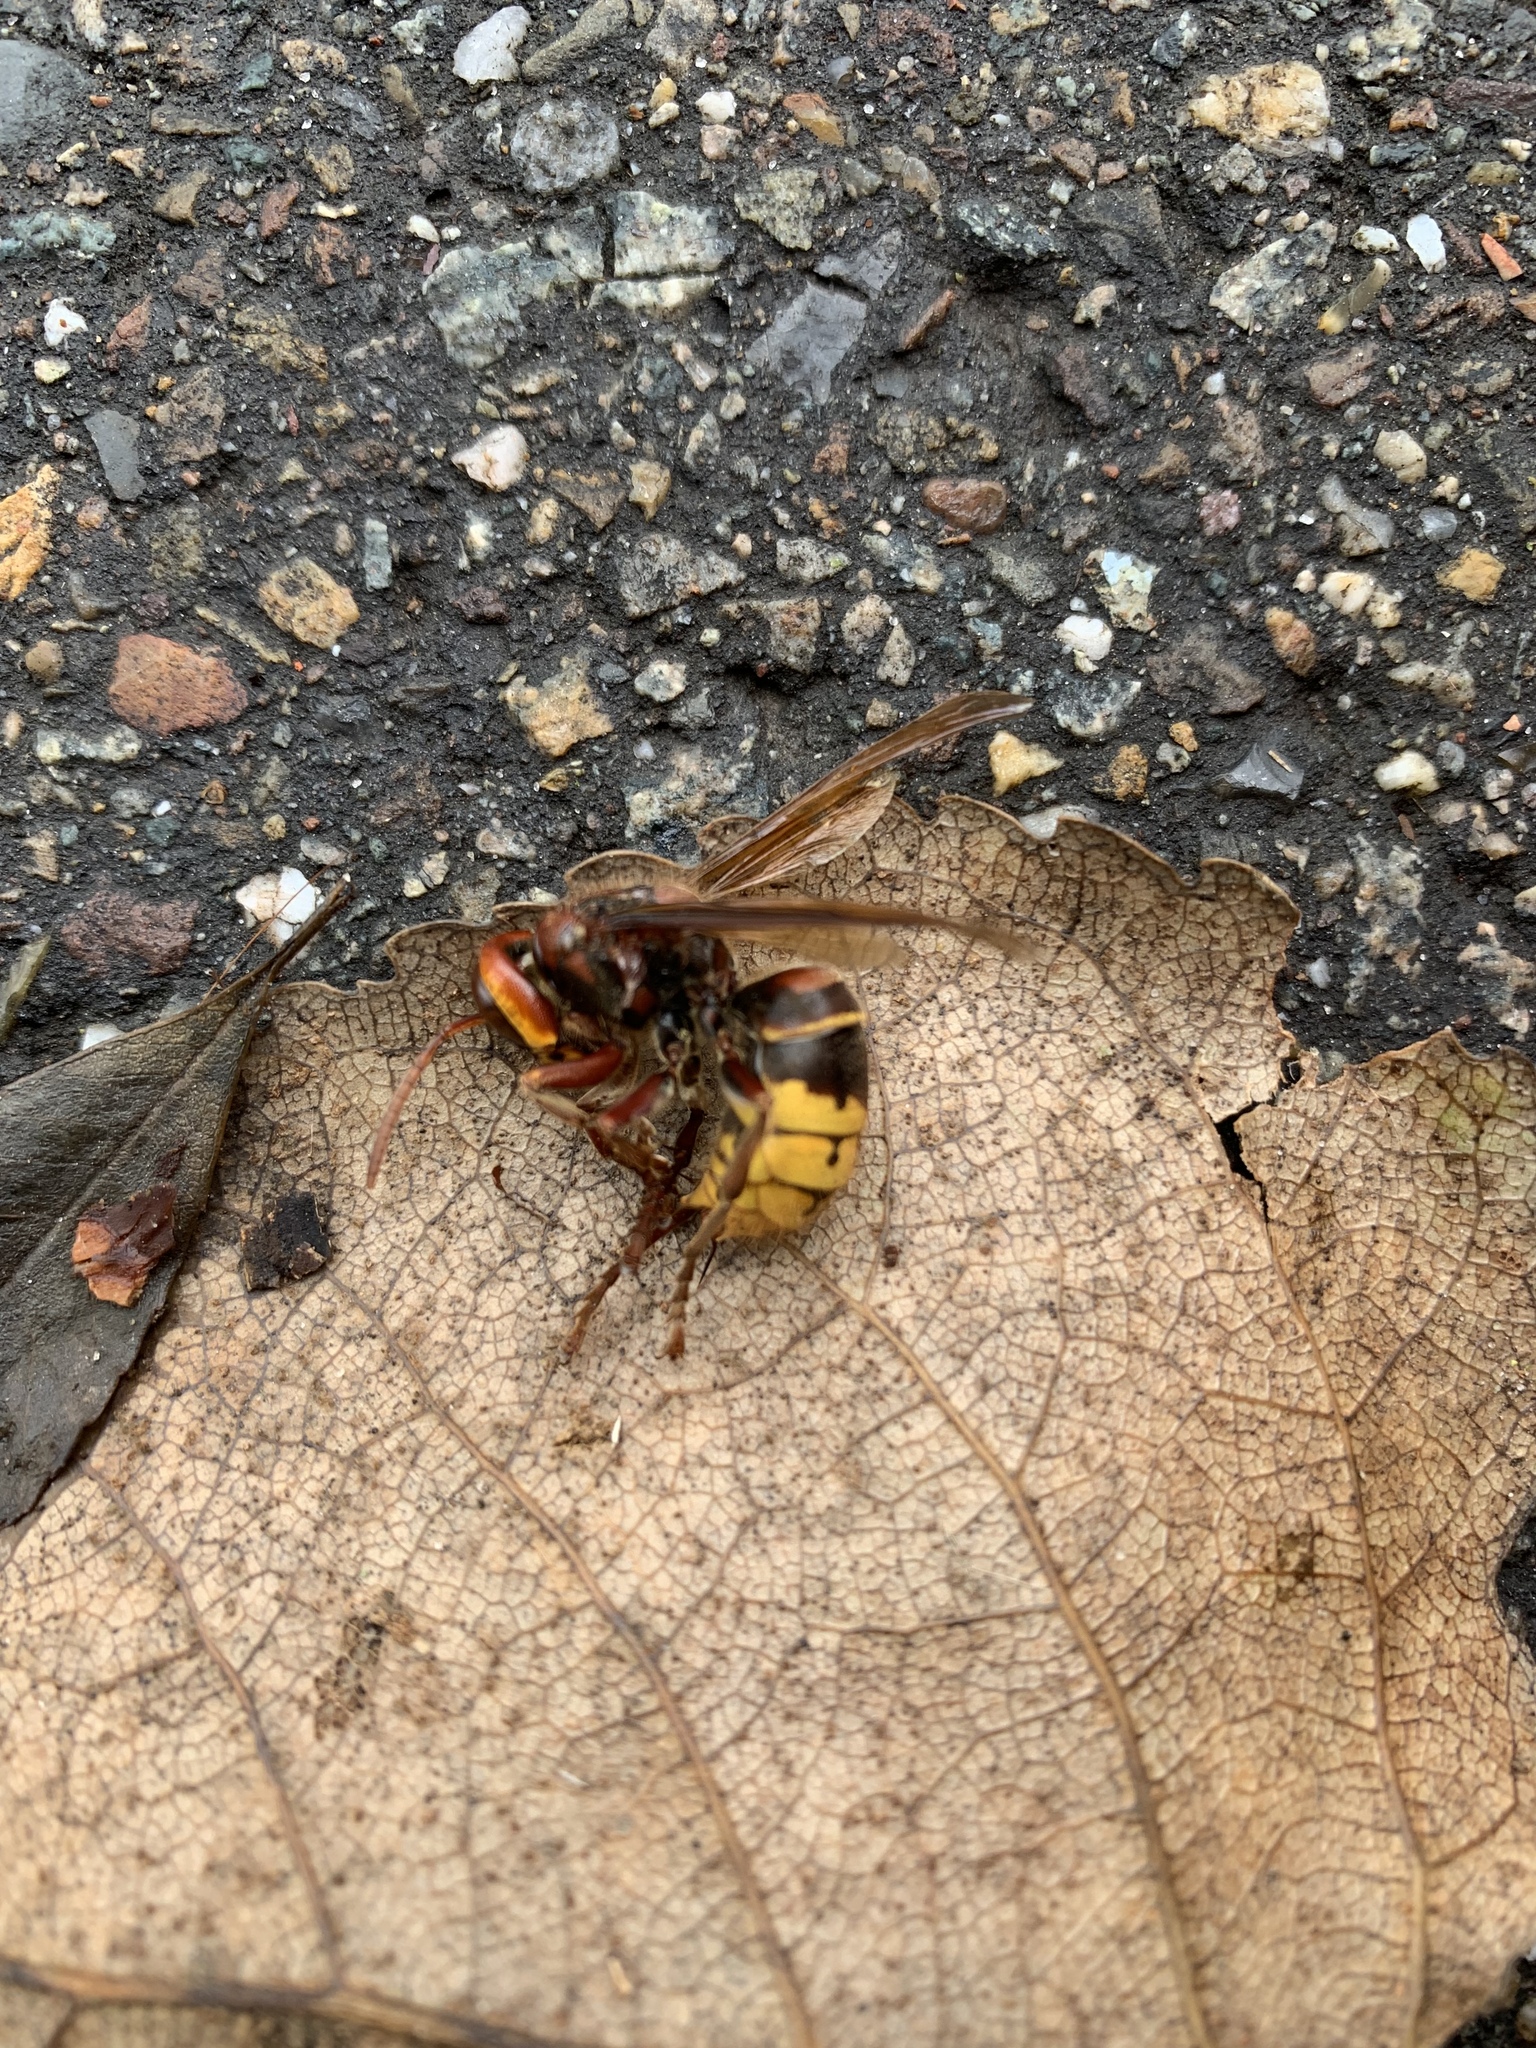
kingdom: Animalia
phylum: Arthropoda
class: Insecta
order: Hymenoptera
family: Vespidae
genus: Vespa
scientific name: Vespa crabro
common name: Hornet
